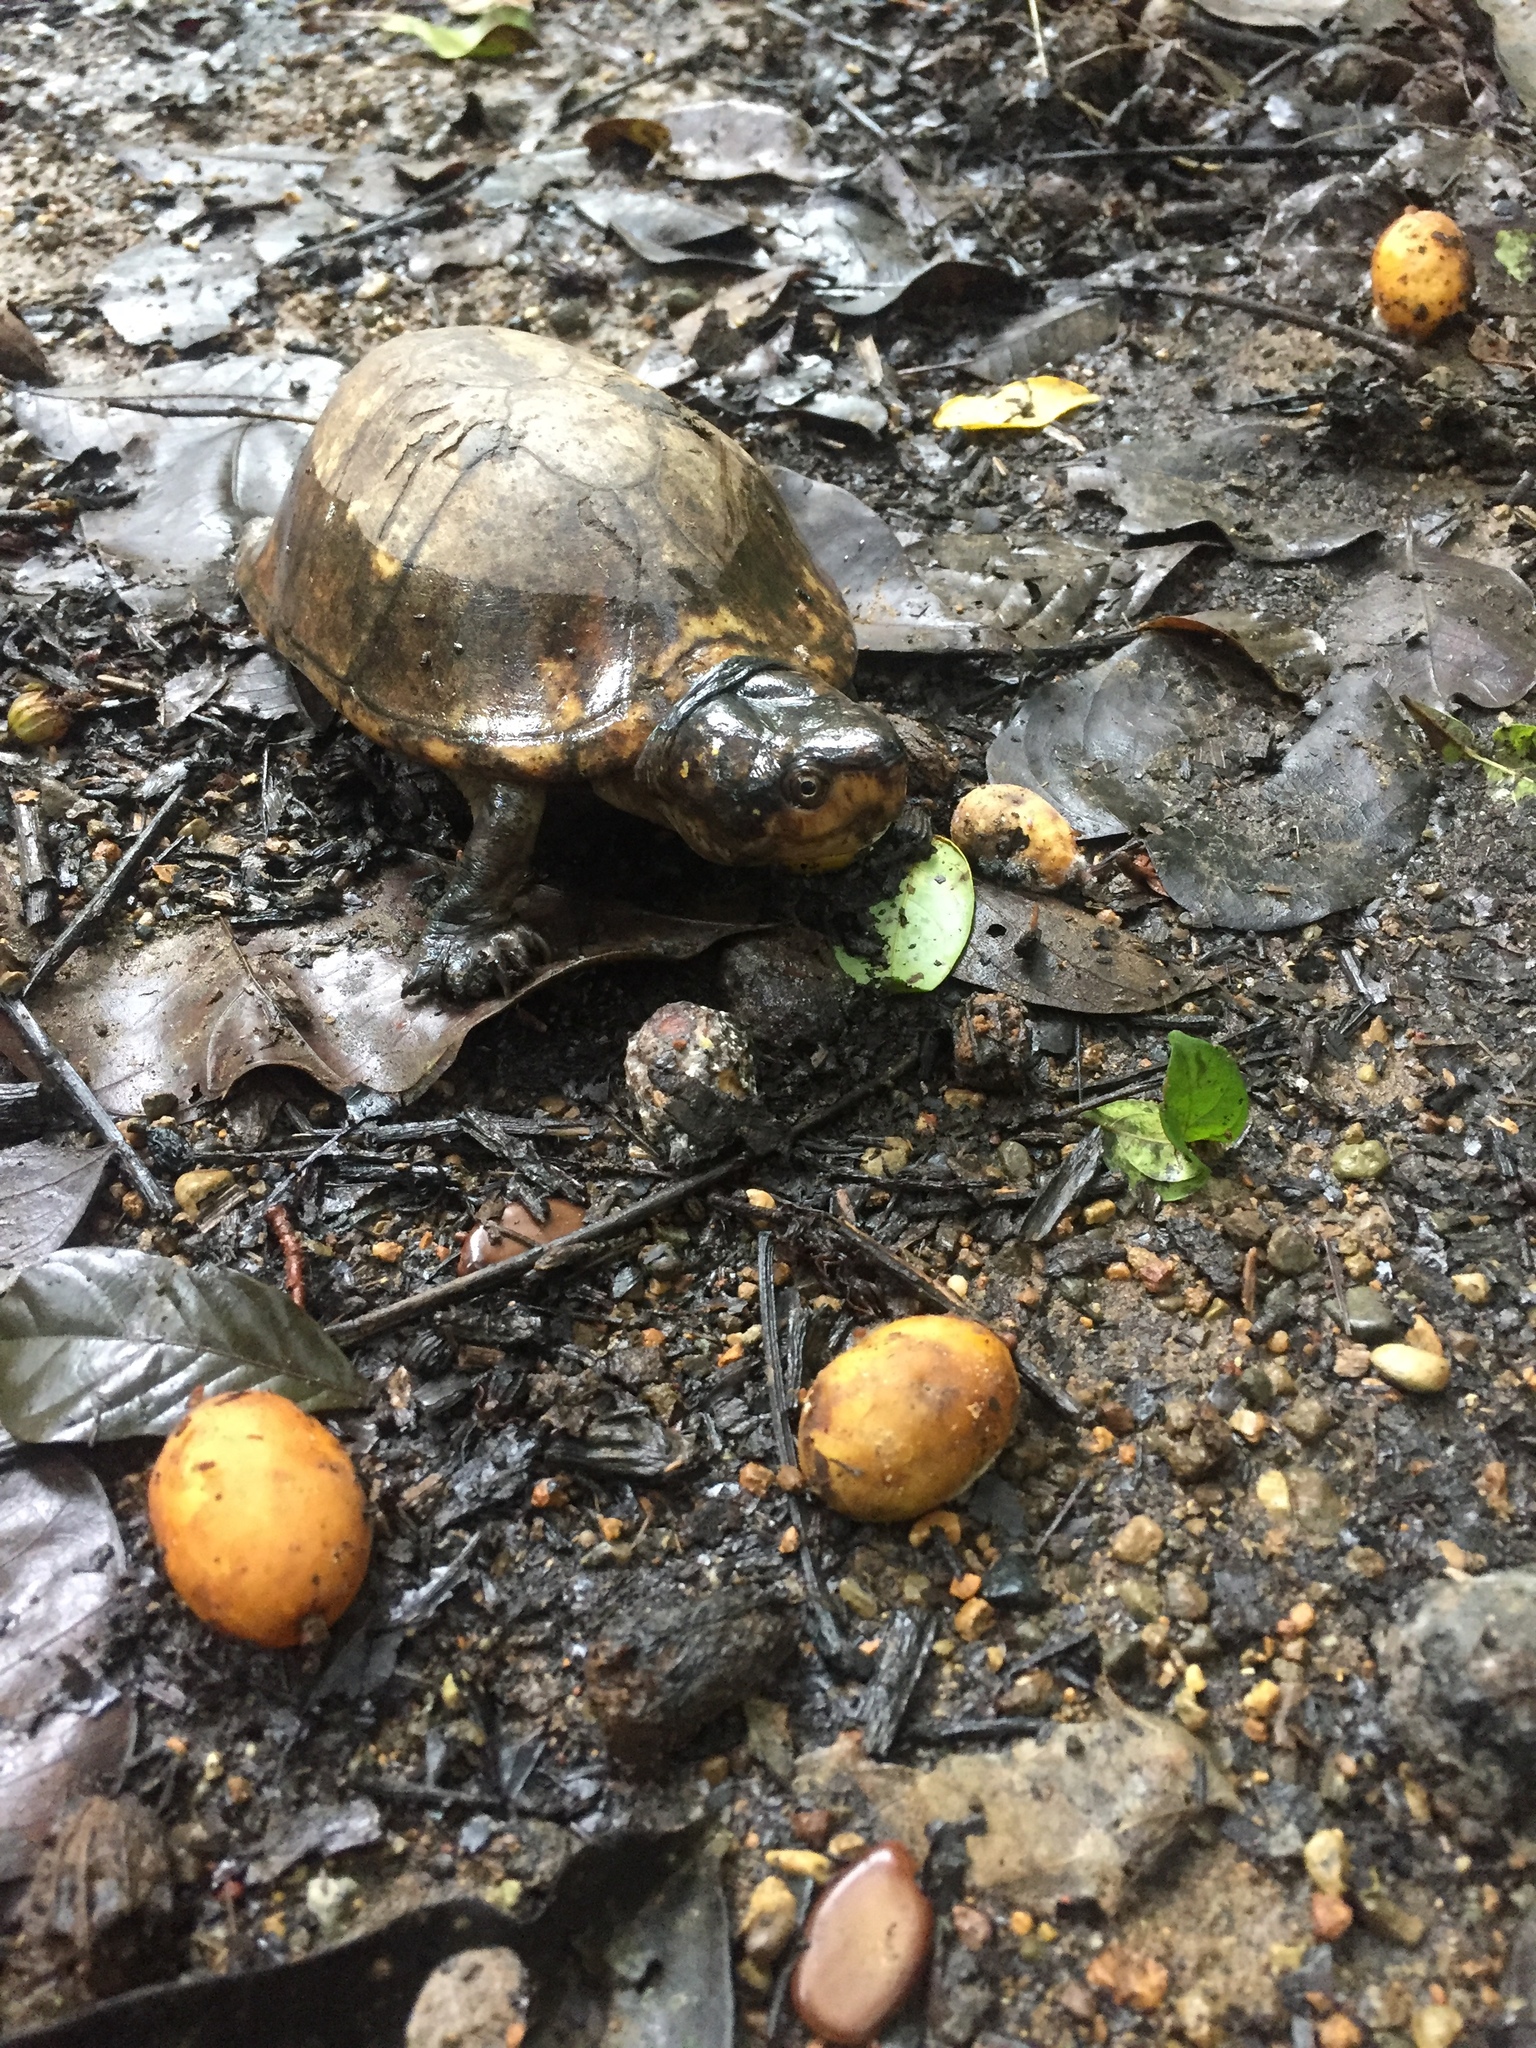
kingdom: Animalia
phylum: Chordata
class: Testudines
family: Kinosternidae
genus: Kinosternon
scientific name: Kinosternon scorpioides
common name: Scorpion mud turtle
